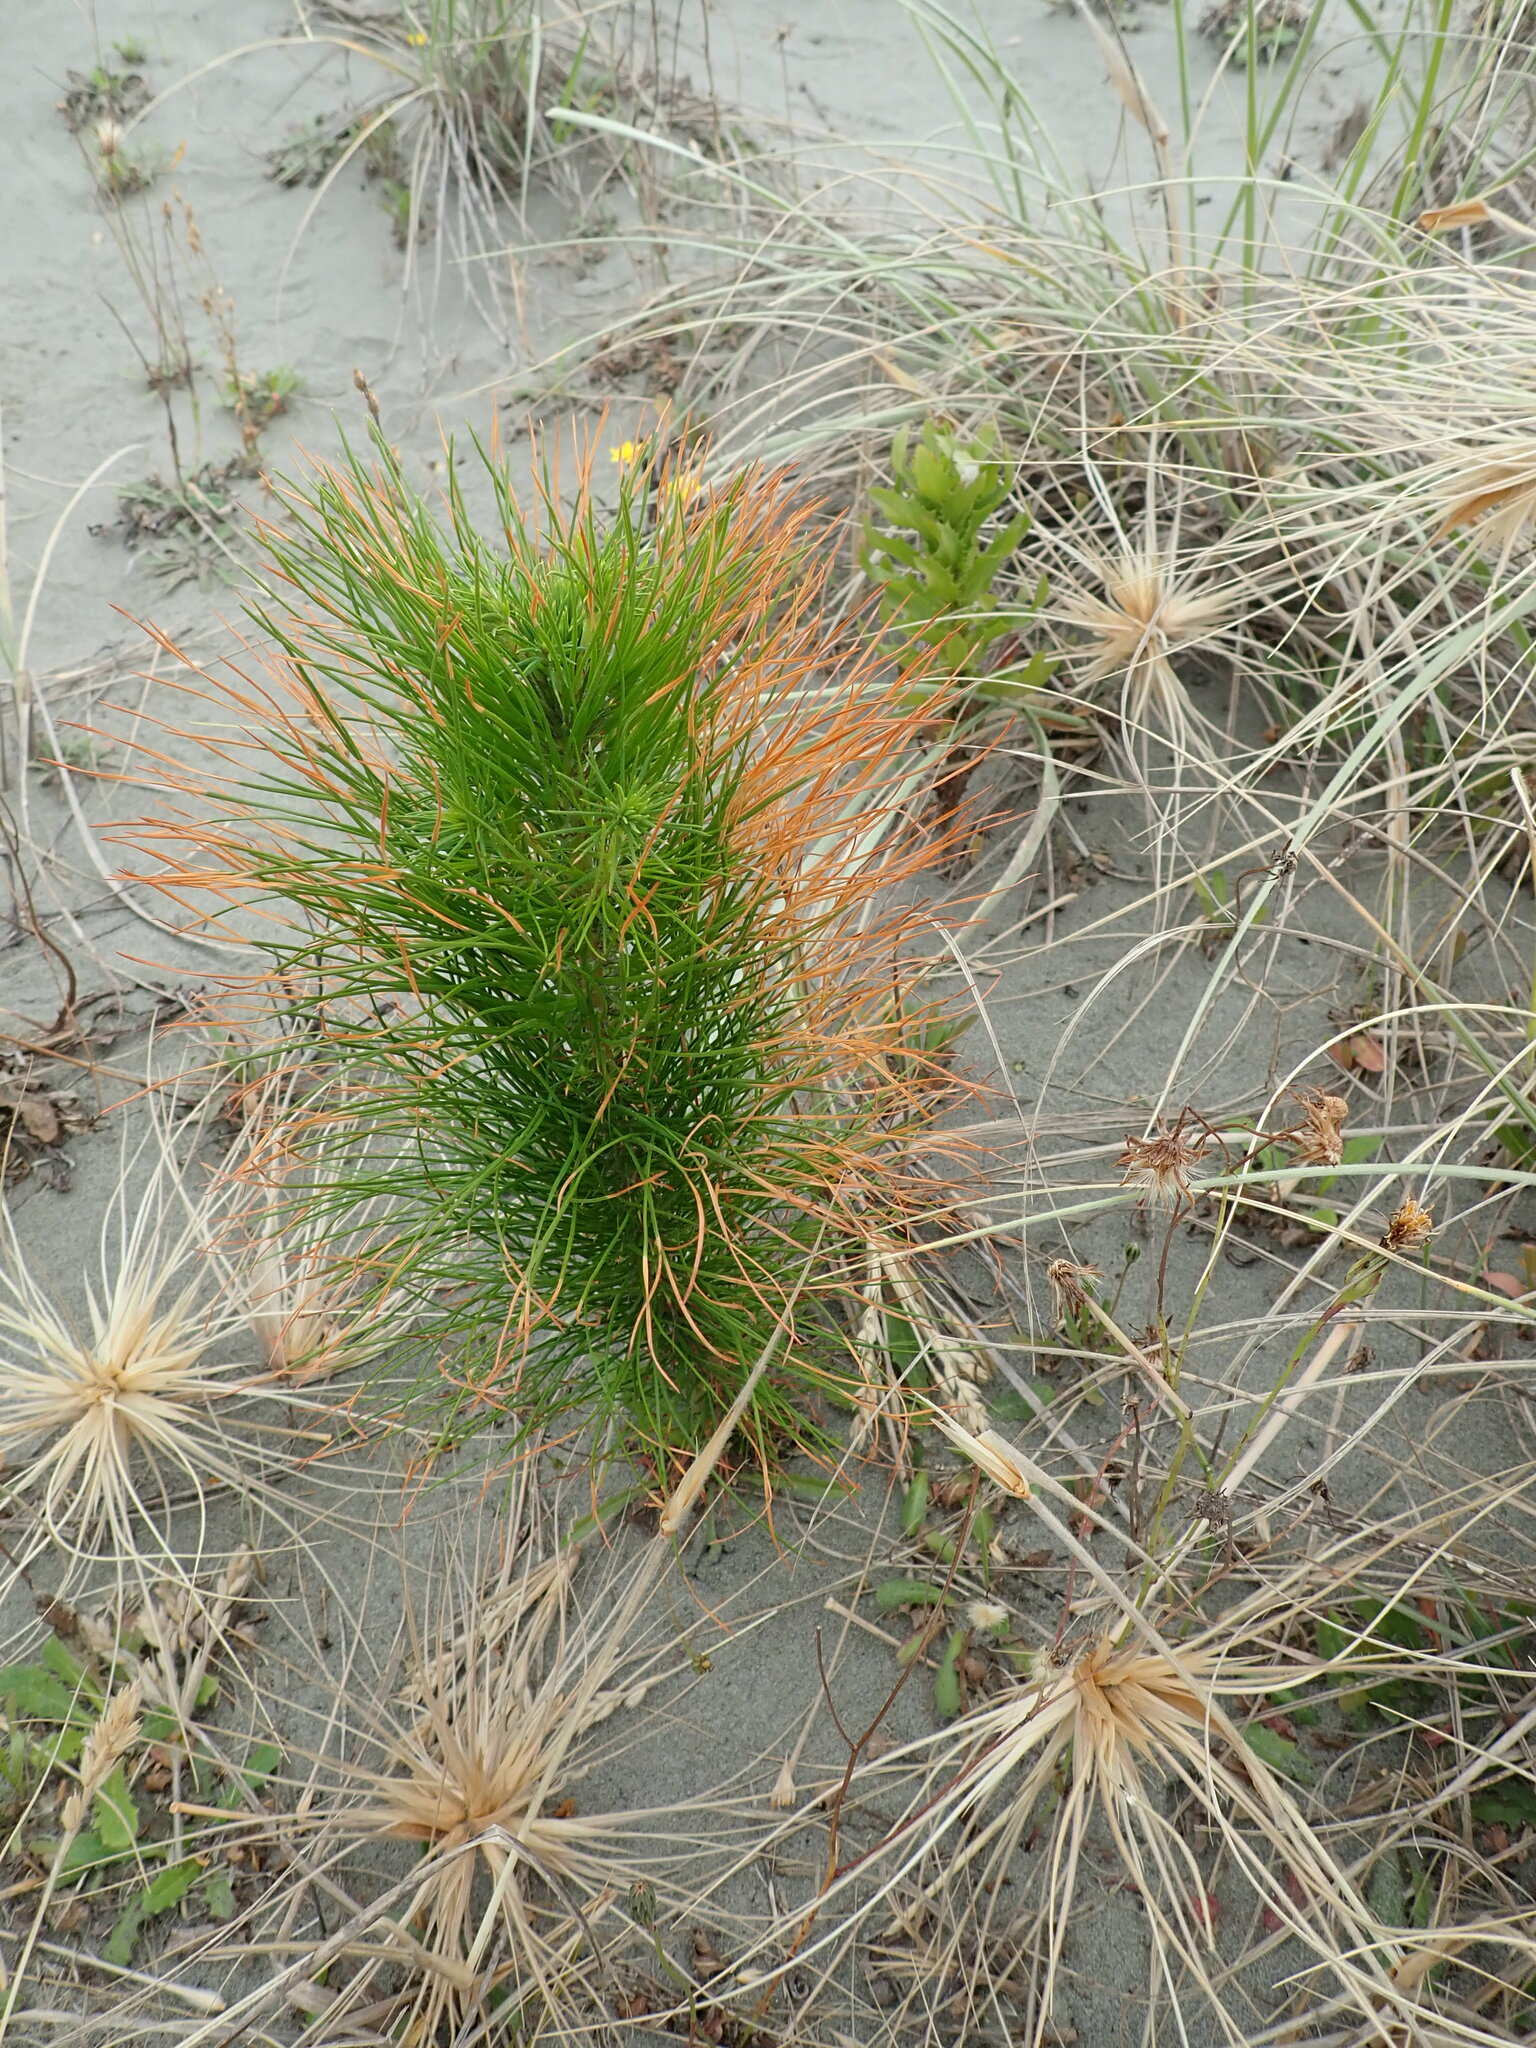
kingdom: Plantae
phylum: Tracheophyta
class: Pinopsida
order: Pinales
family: Pinaceae
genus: Pinus
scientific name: Pinus radiata
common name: Monterey pine
